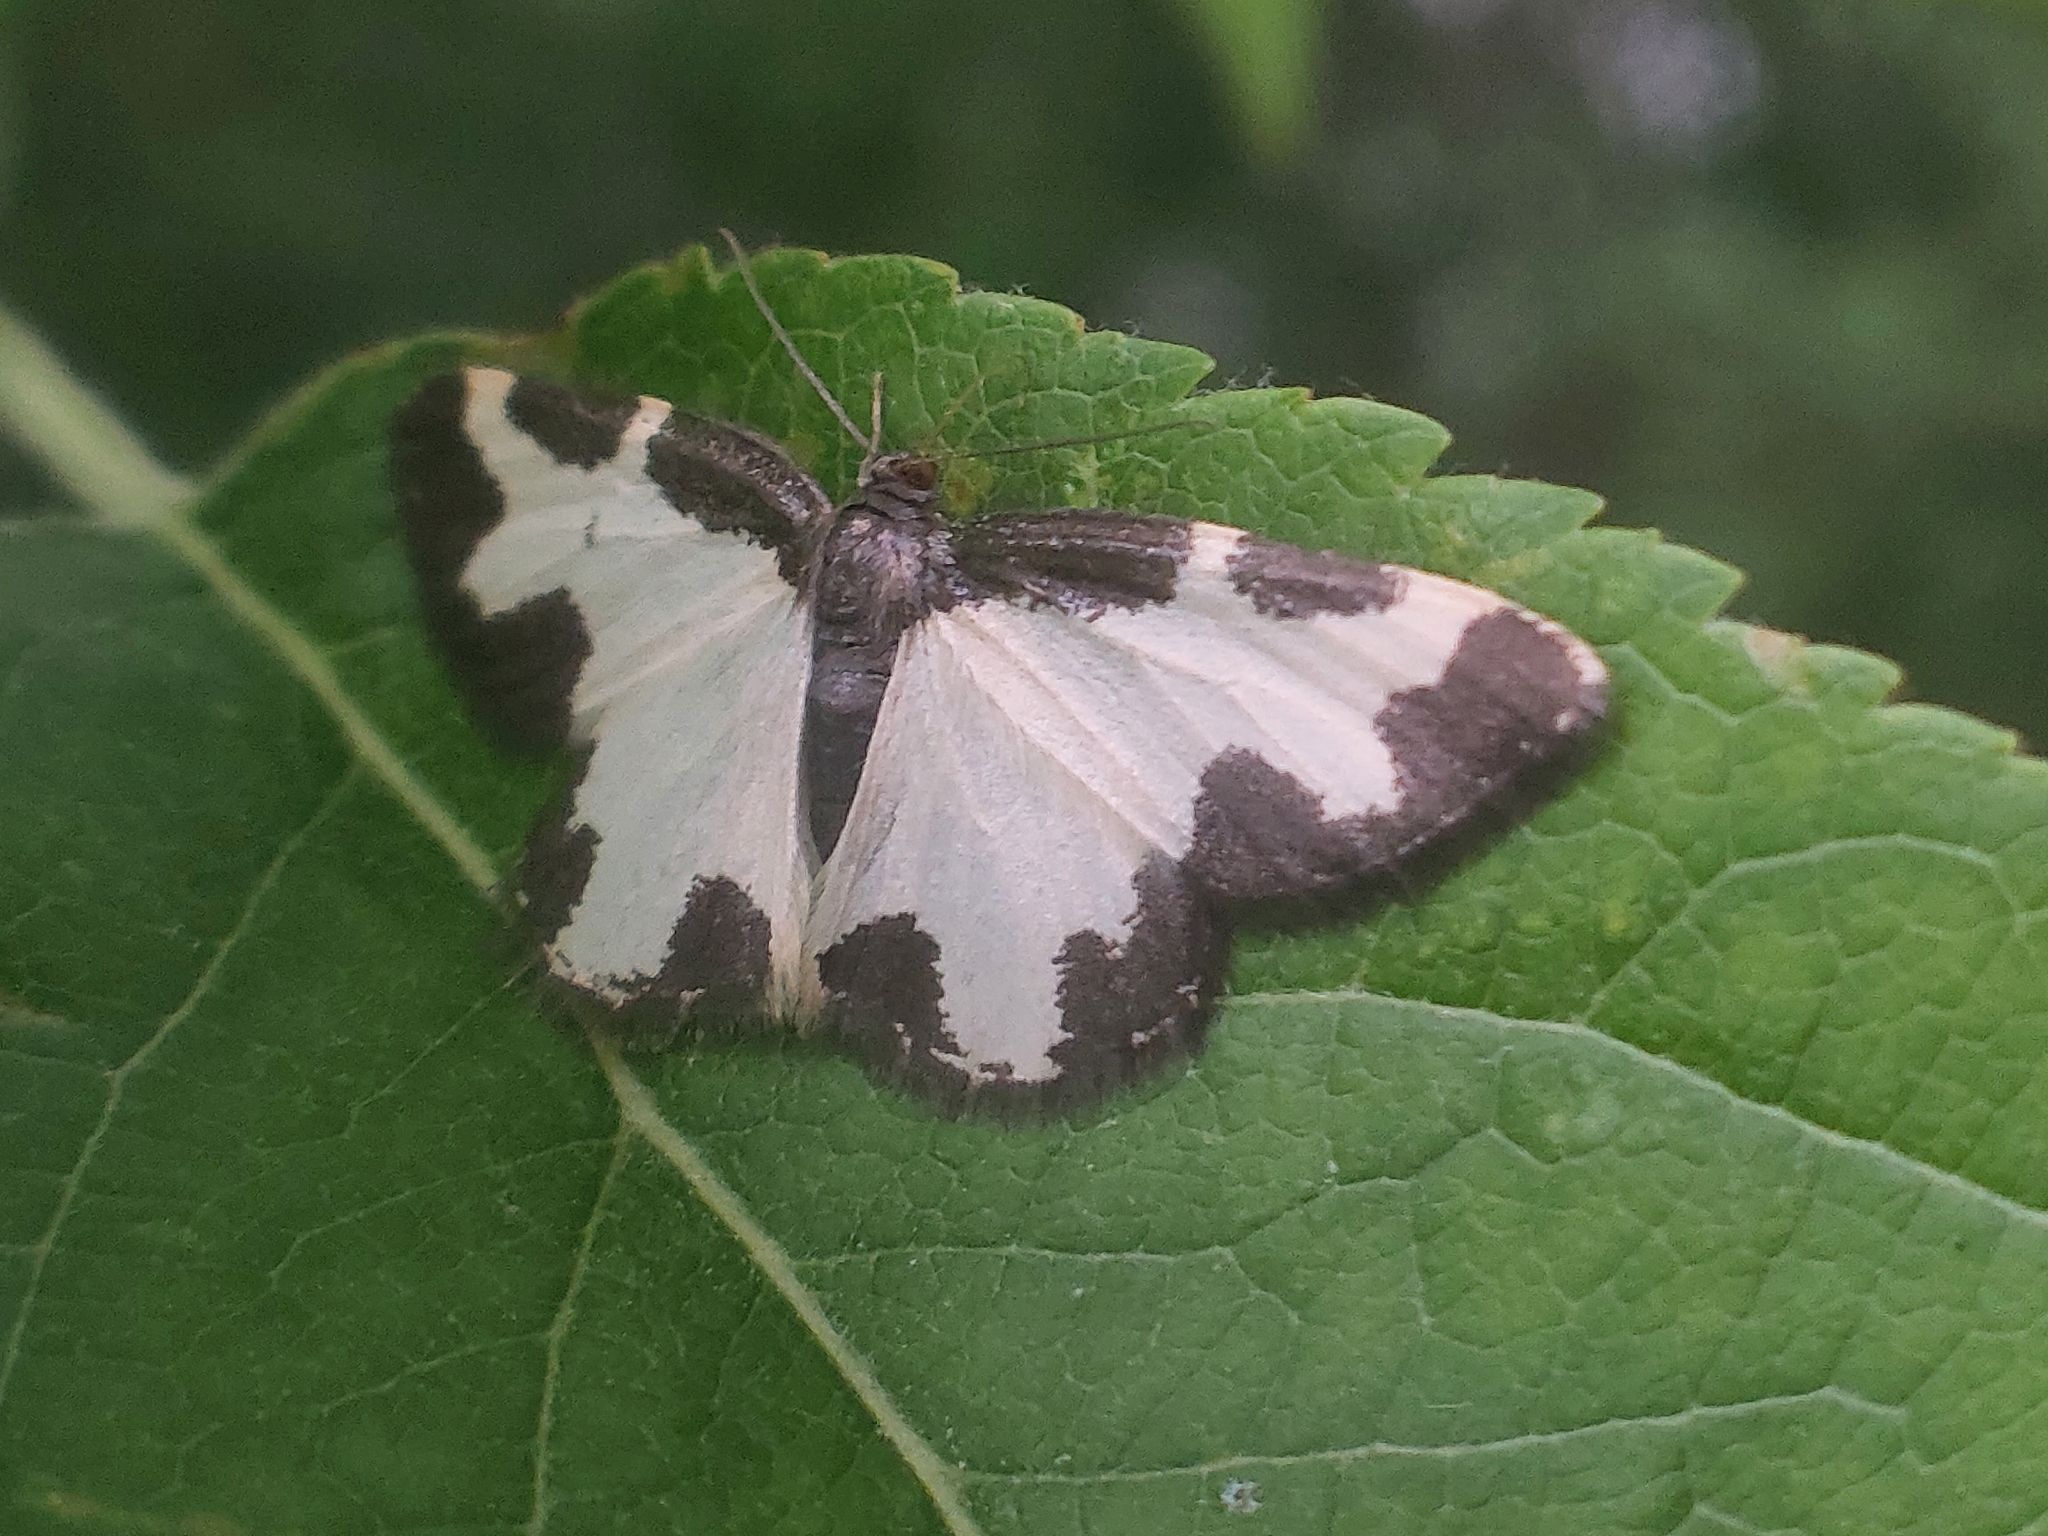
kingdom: Animalia
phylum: Arthropoda
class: Insecta
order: Lepidoptera
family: Geometridae
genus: Lomaspilis
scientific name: Lomaspilis marginata
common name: Clouded border
